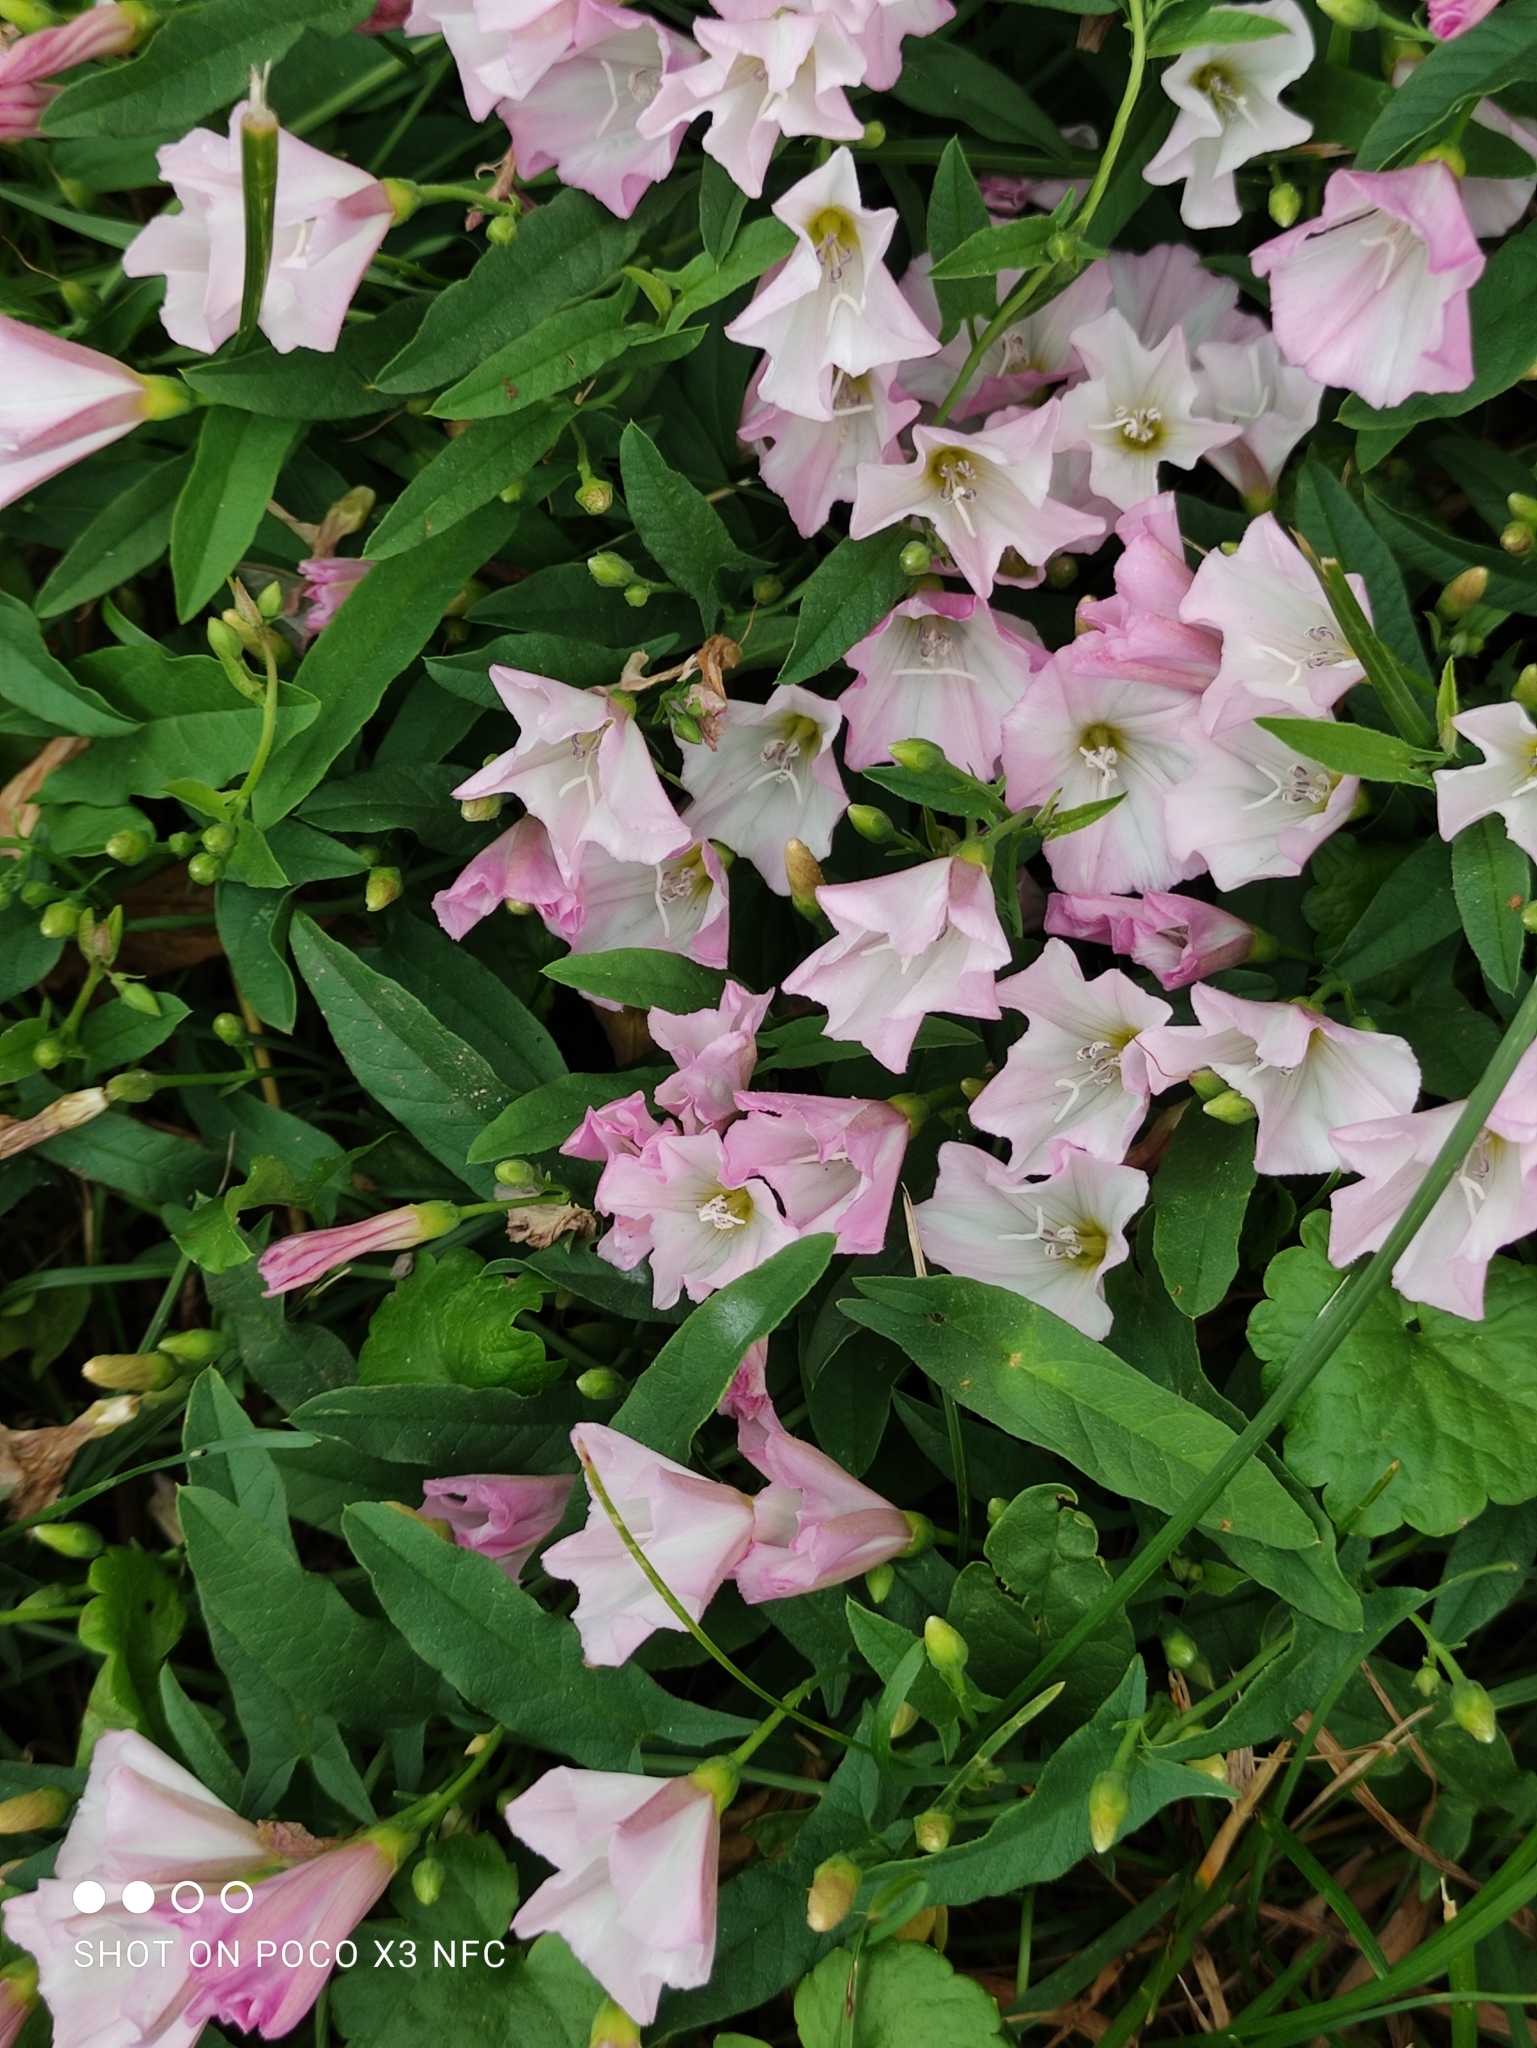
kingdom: Plantae
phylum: Tracheophyta
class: Magnoliopsida
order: Solanales
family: Convolvulaceae
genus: Convolvulus
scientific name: Convolvulus arvensis
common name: Field bindweed
